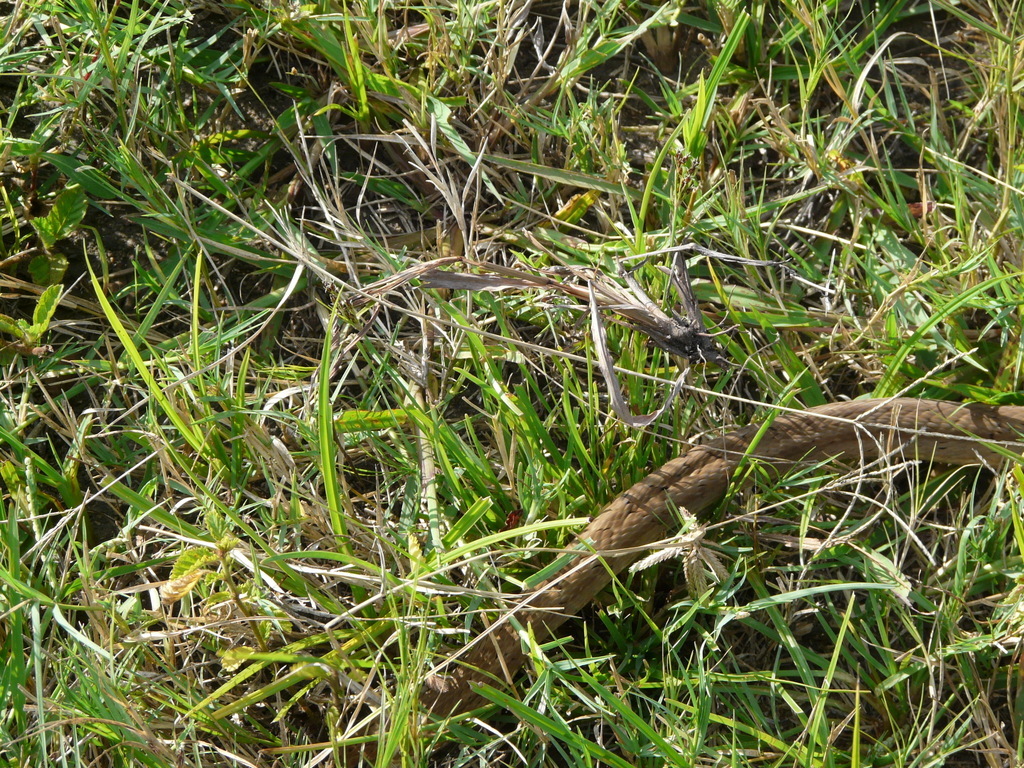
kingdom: Animalia
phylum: Chordata
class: Squamata
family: Viperidae
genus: Causus
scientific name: Causus rhombeatus
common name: Common night adder
